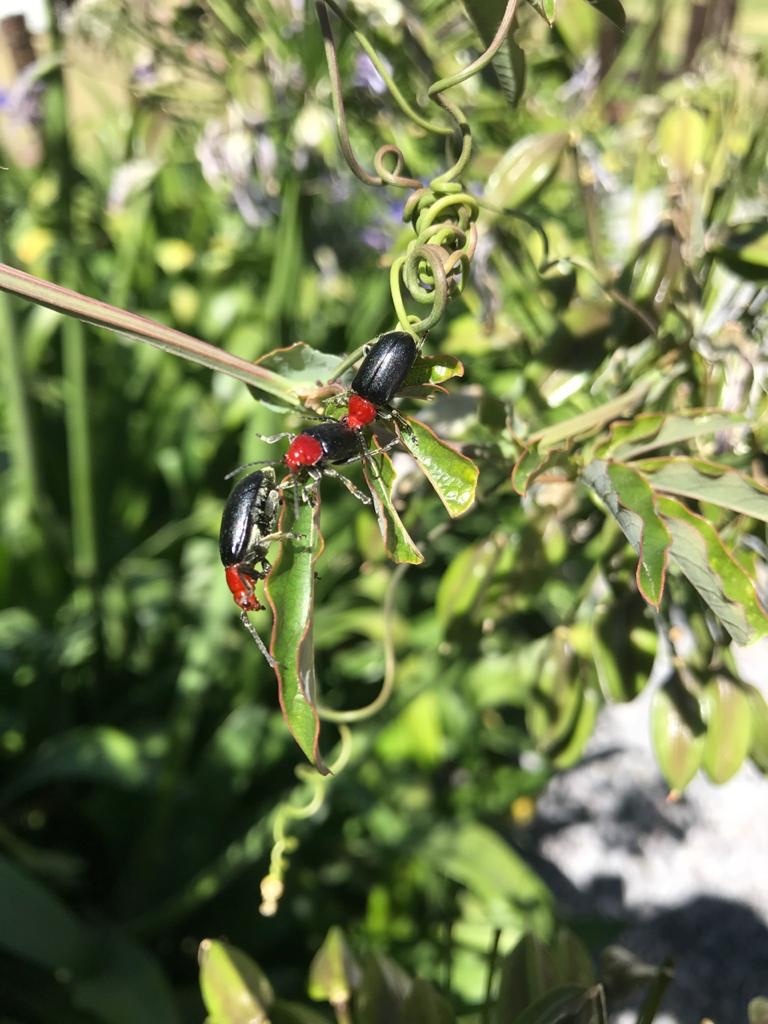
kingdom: Animalia
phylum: Arthropoda
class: Insecta
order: Coleoptera
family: Chrysomelidae
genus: Cacoscelis
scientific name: Cacoscelis
